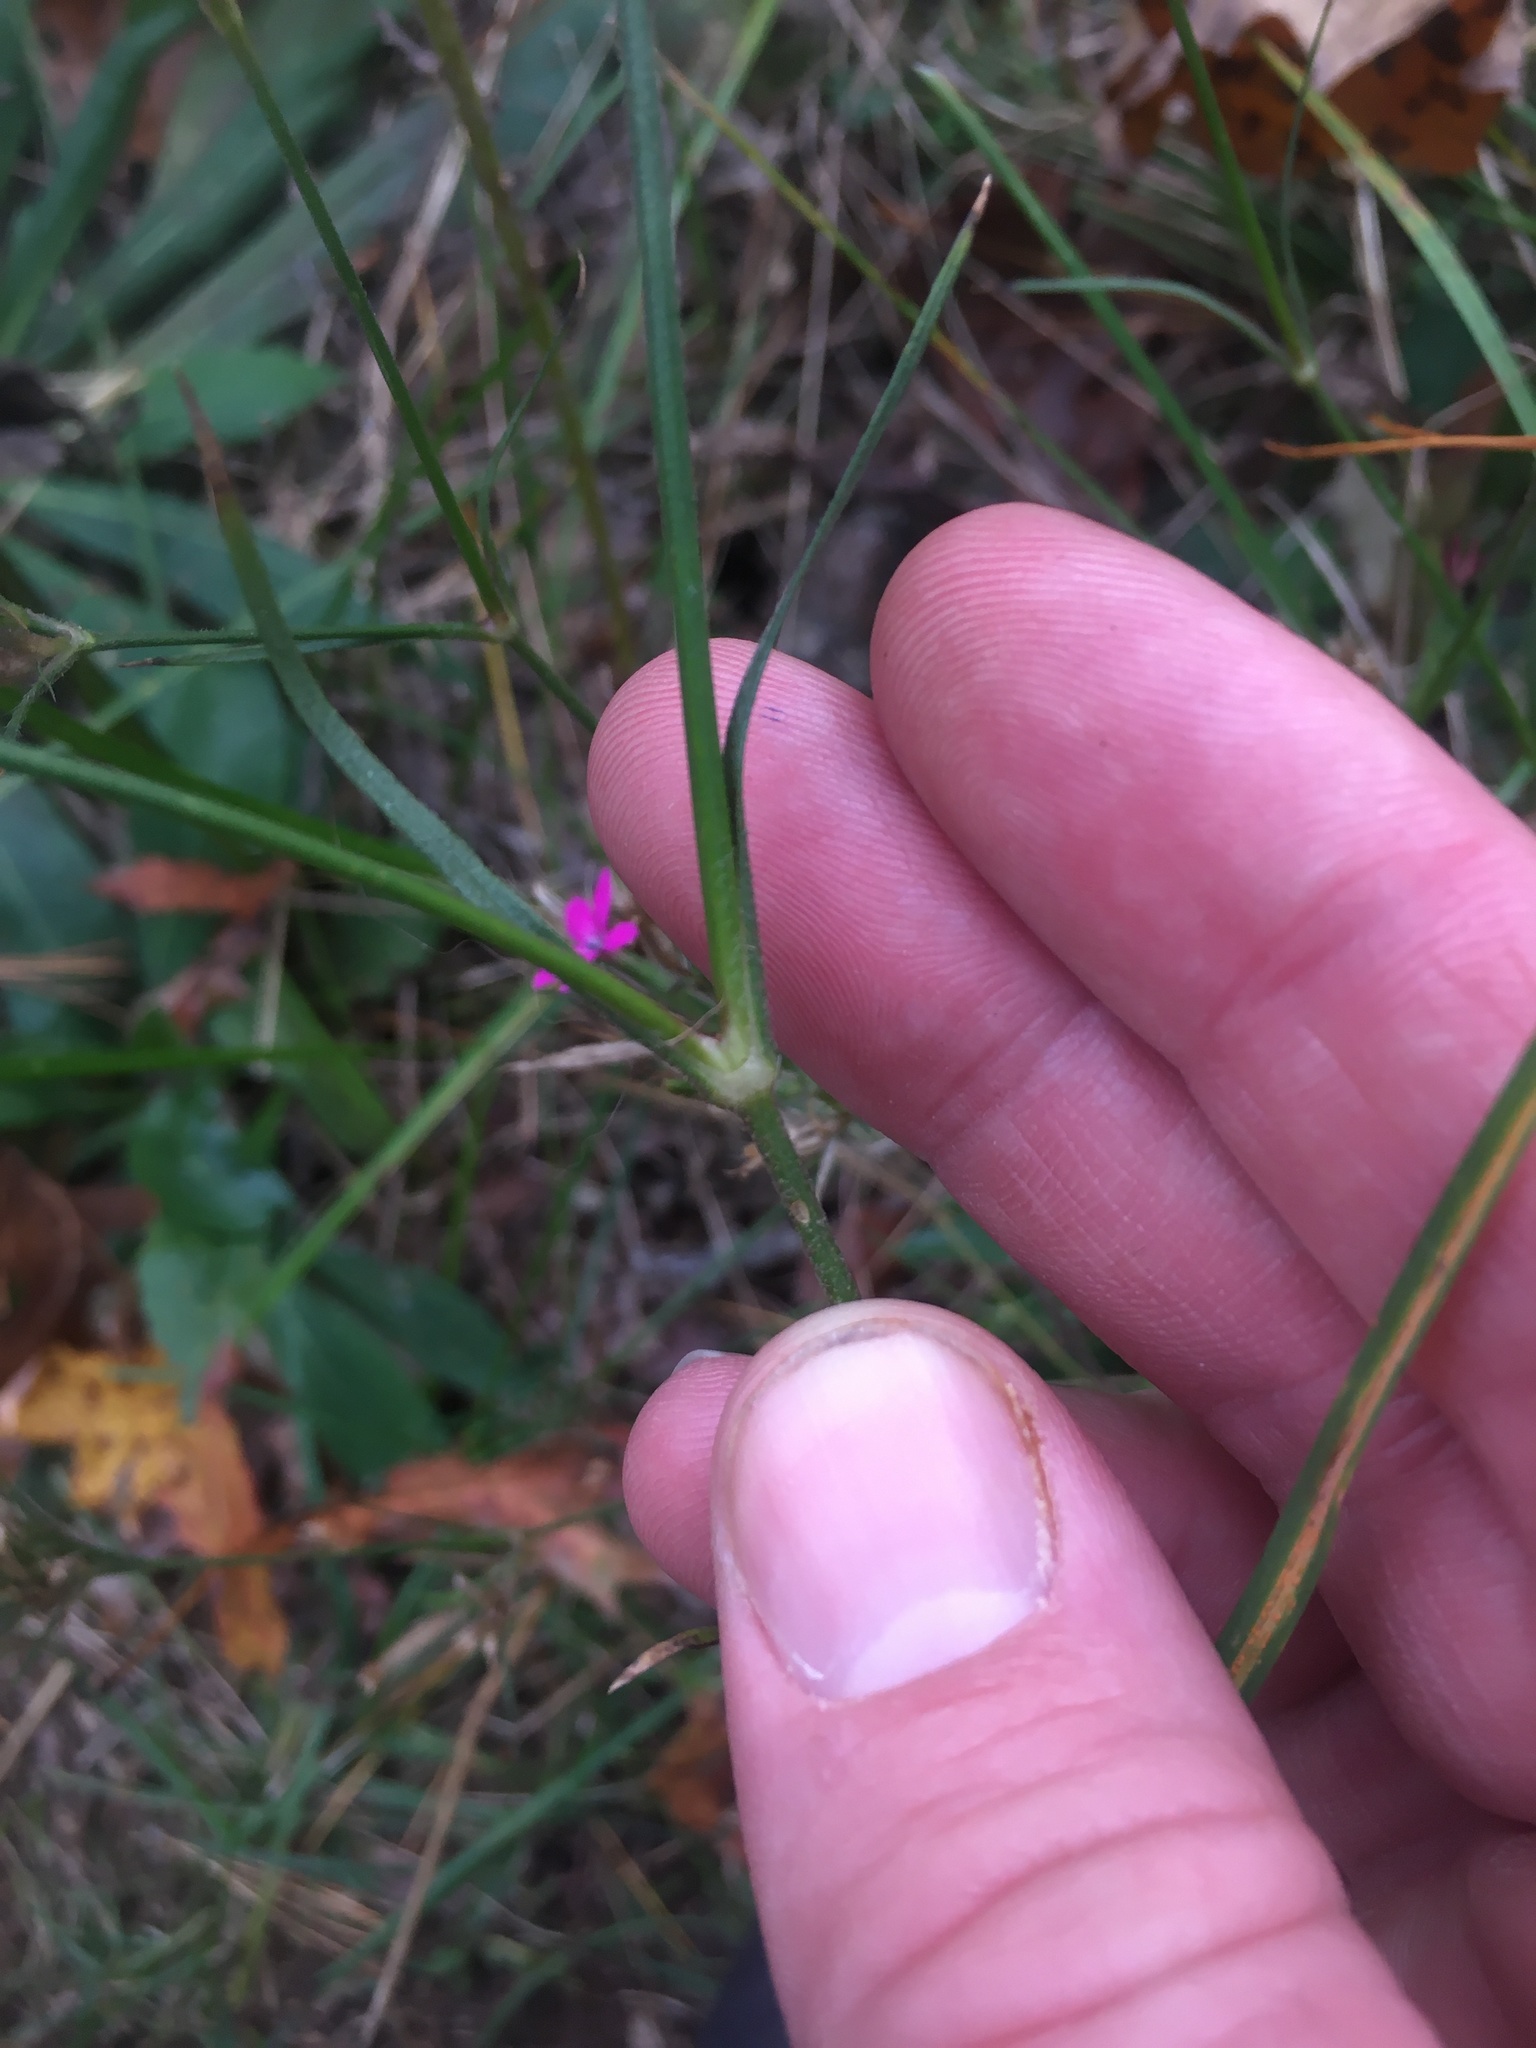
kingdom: Plantae
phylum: Tracheophyta
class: Magnoliopsida
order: Caryophyllales
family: Caryophyllaceae
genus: Dianthus
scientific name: Dianthus armeria
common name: Deptford pink
